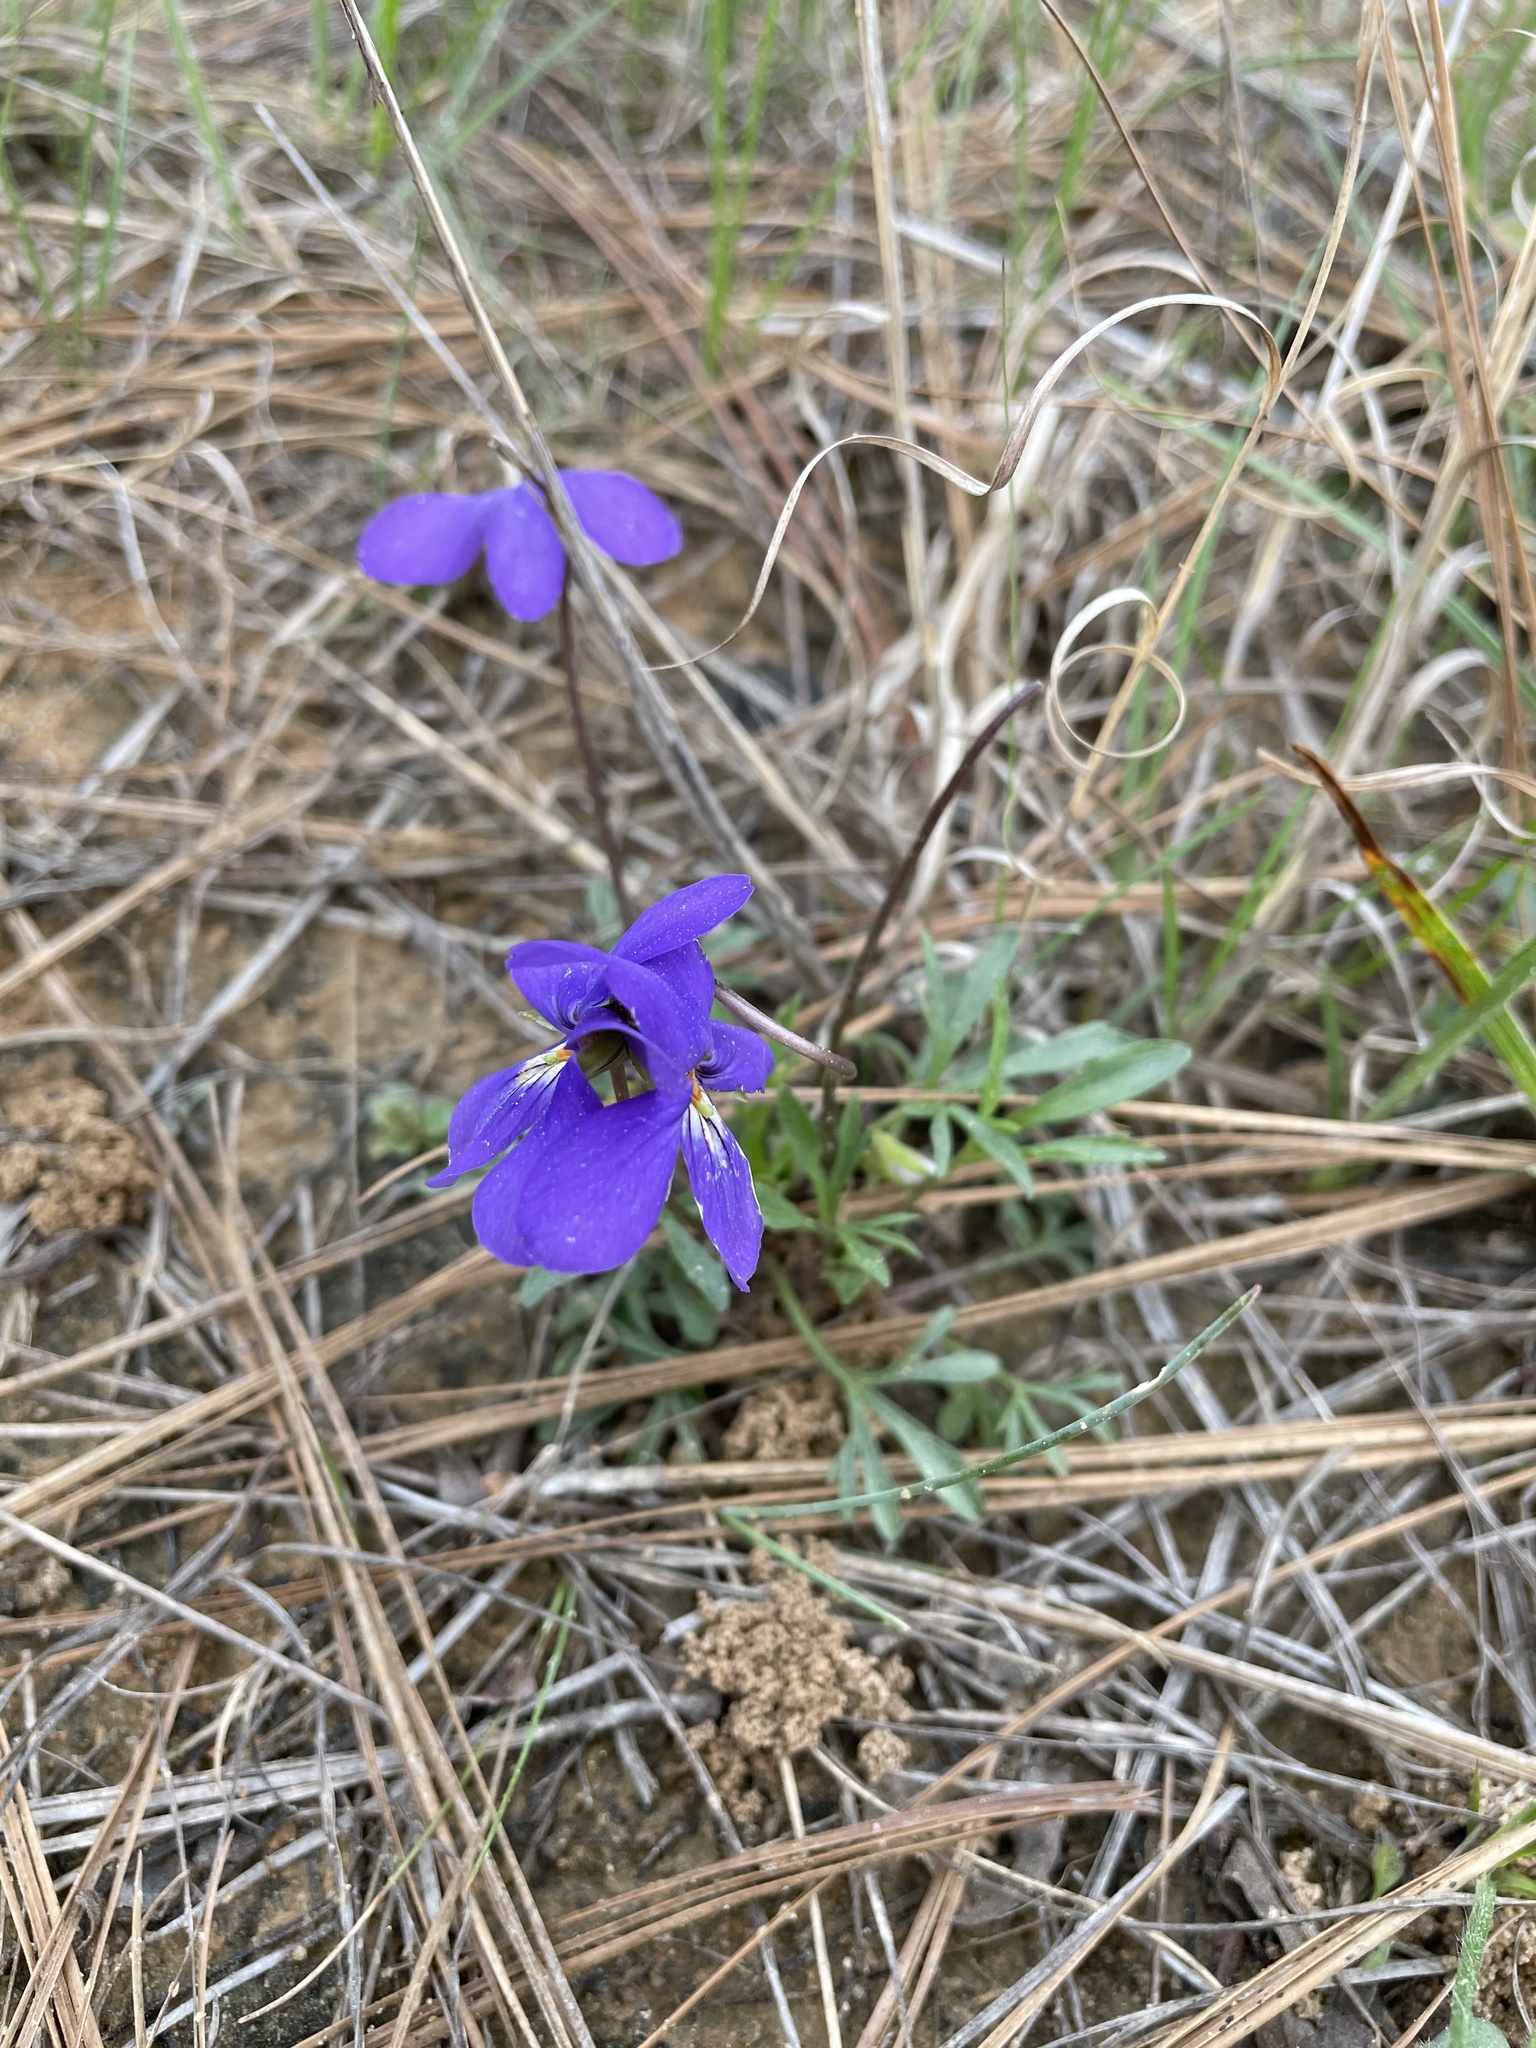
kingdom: Plantae
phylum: Tracheophyta
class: Magnoliopsida
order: Malpighiales
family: Violaceae
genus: Viola
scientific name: Viola pedata
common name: Pansy violet
